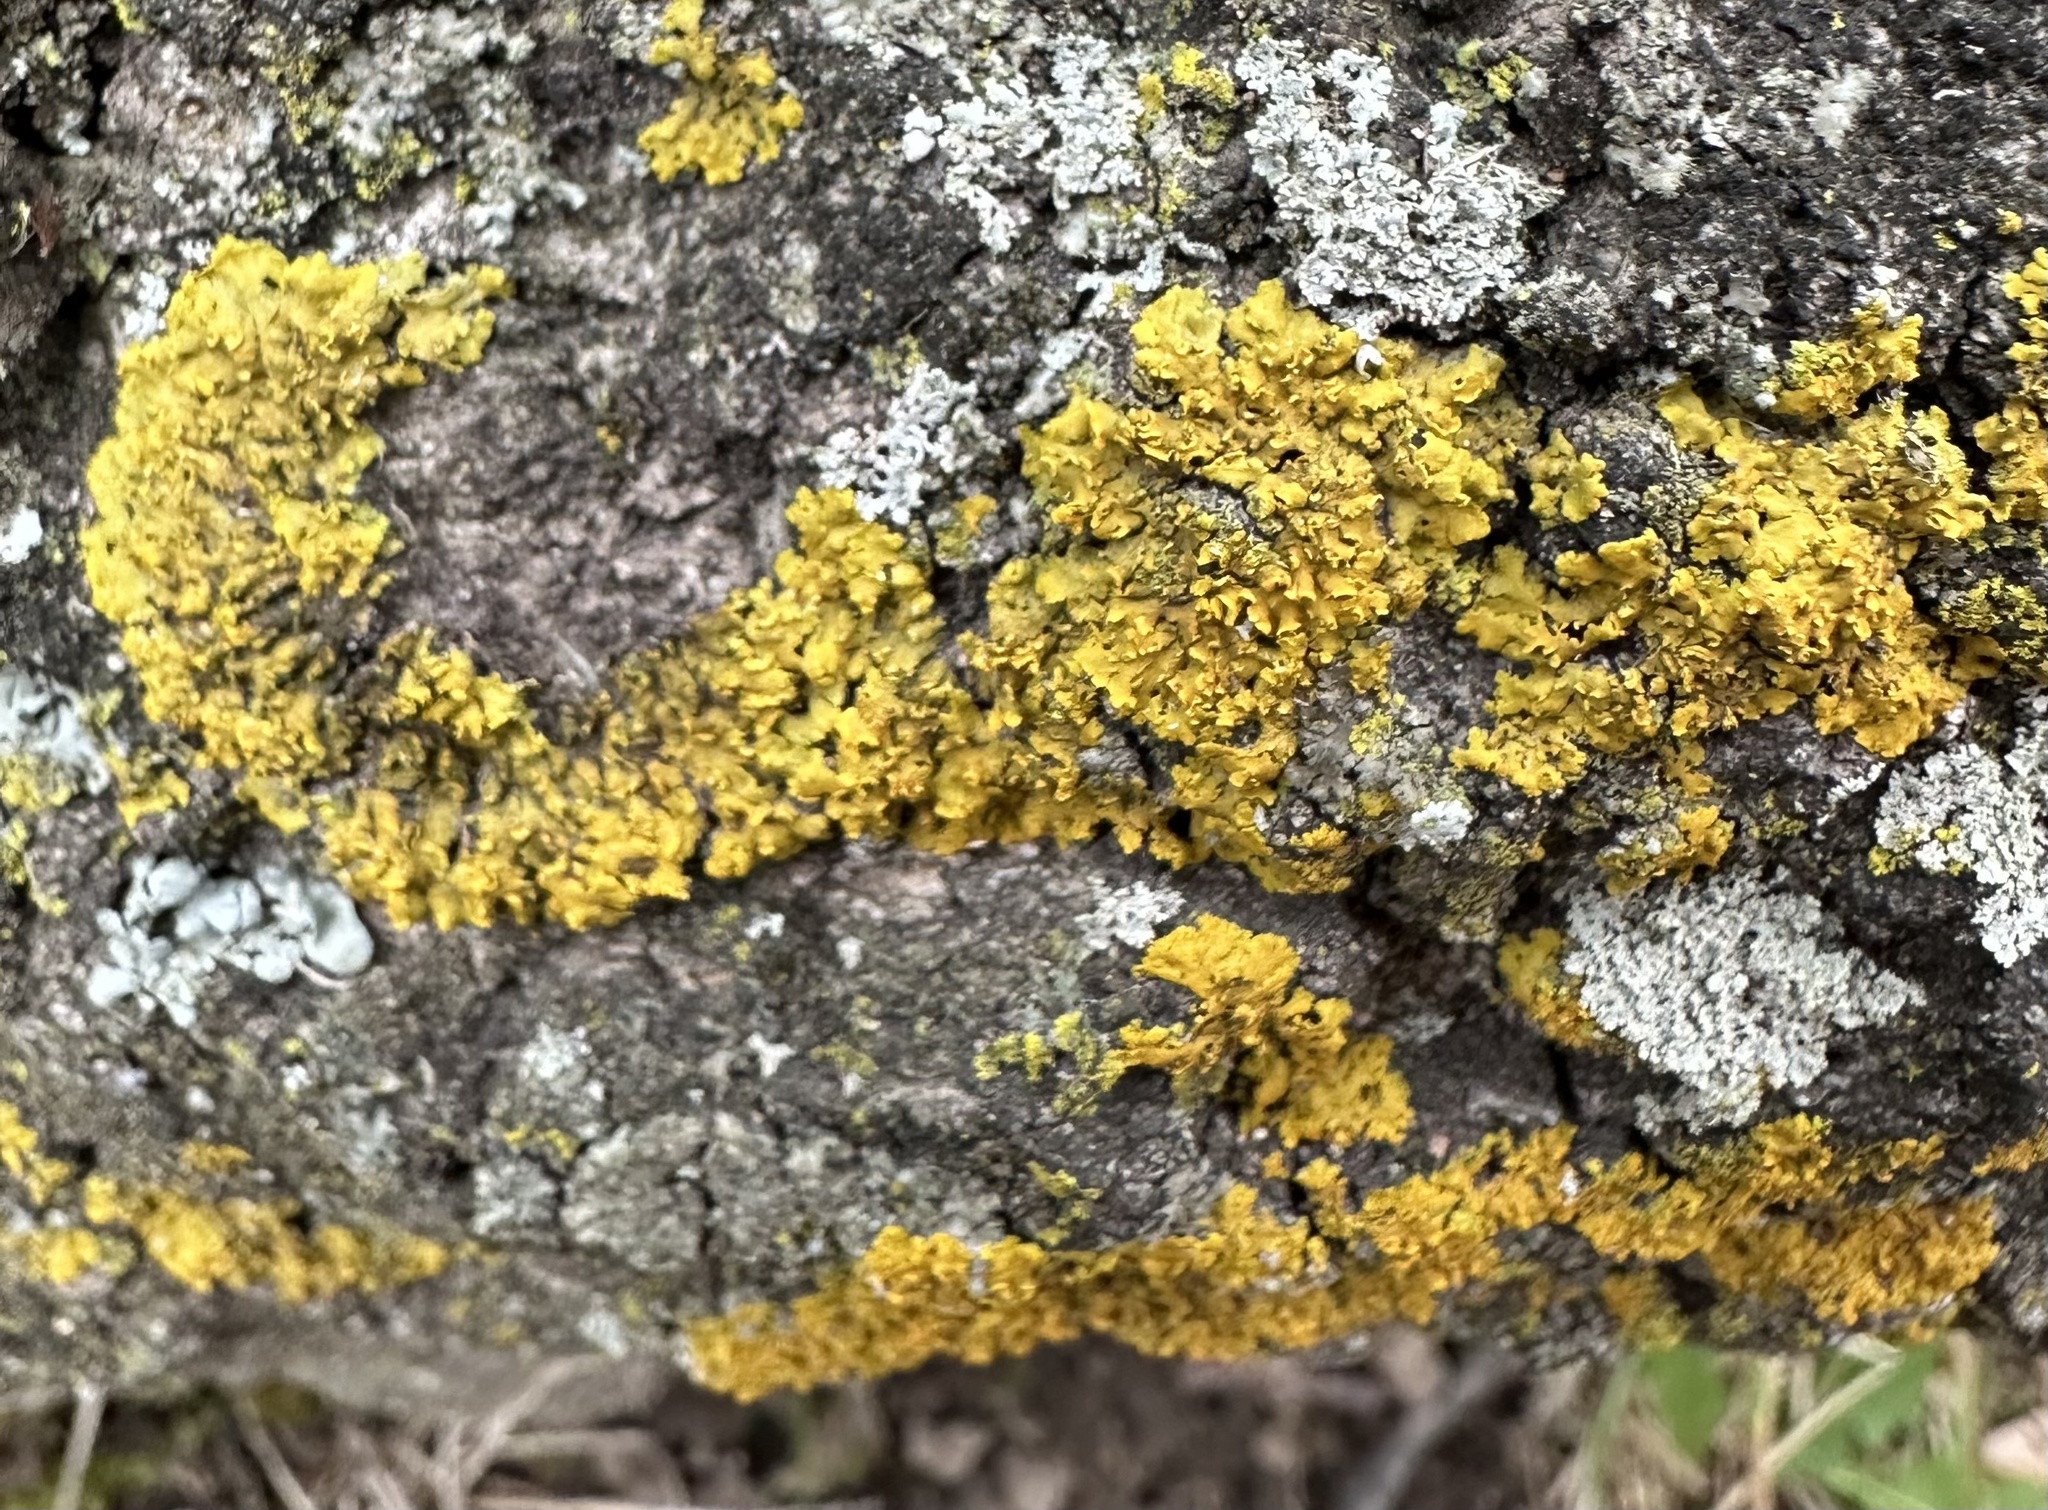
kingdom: Fungi
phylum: Ascomycota
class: Lecanoromycetes
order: Teloschistales
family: Teloschistaceae
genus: Oxneria
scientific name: Oxneria fallax
